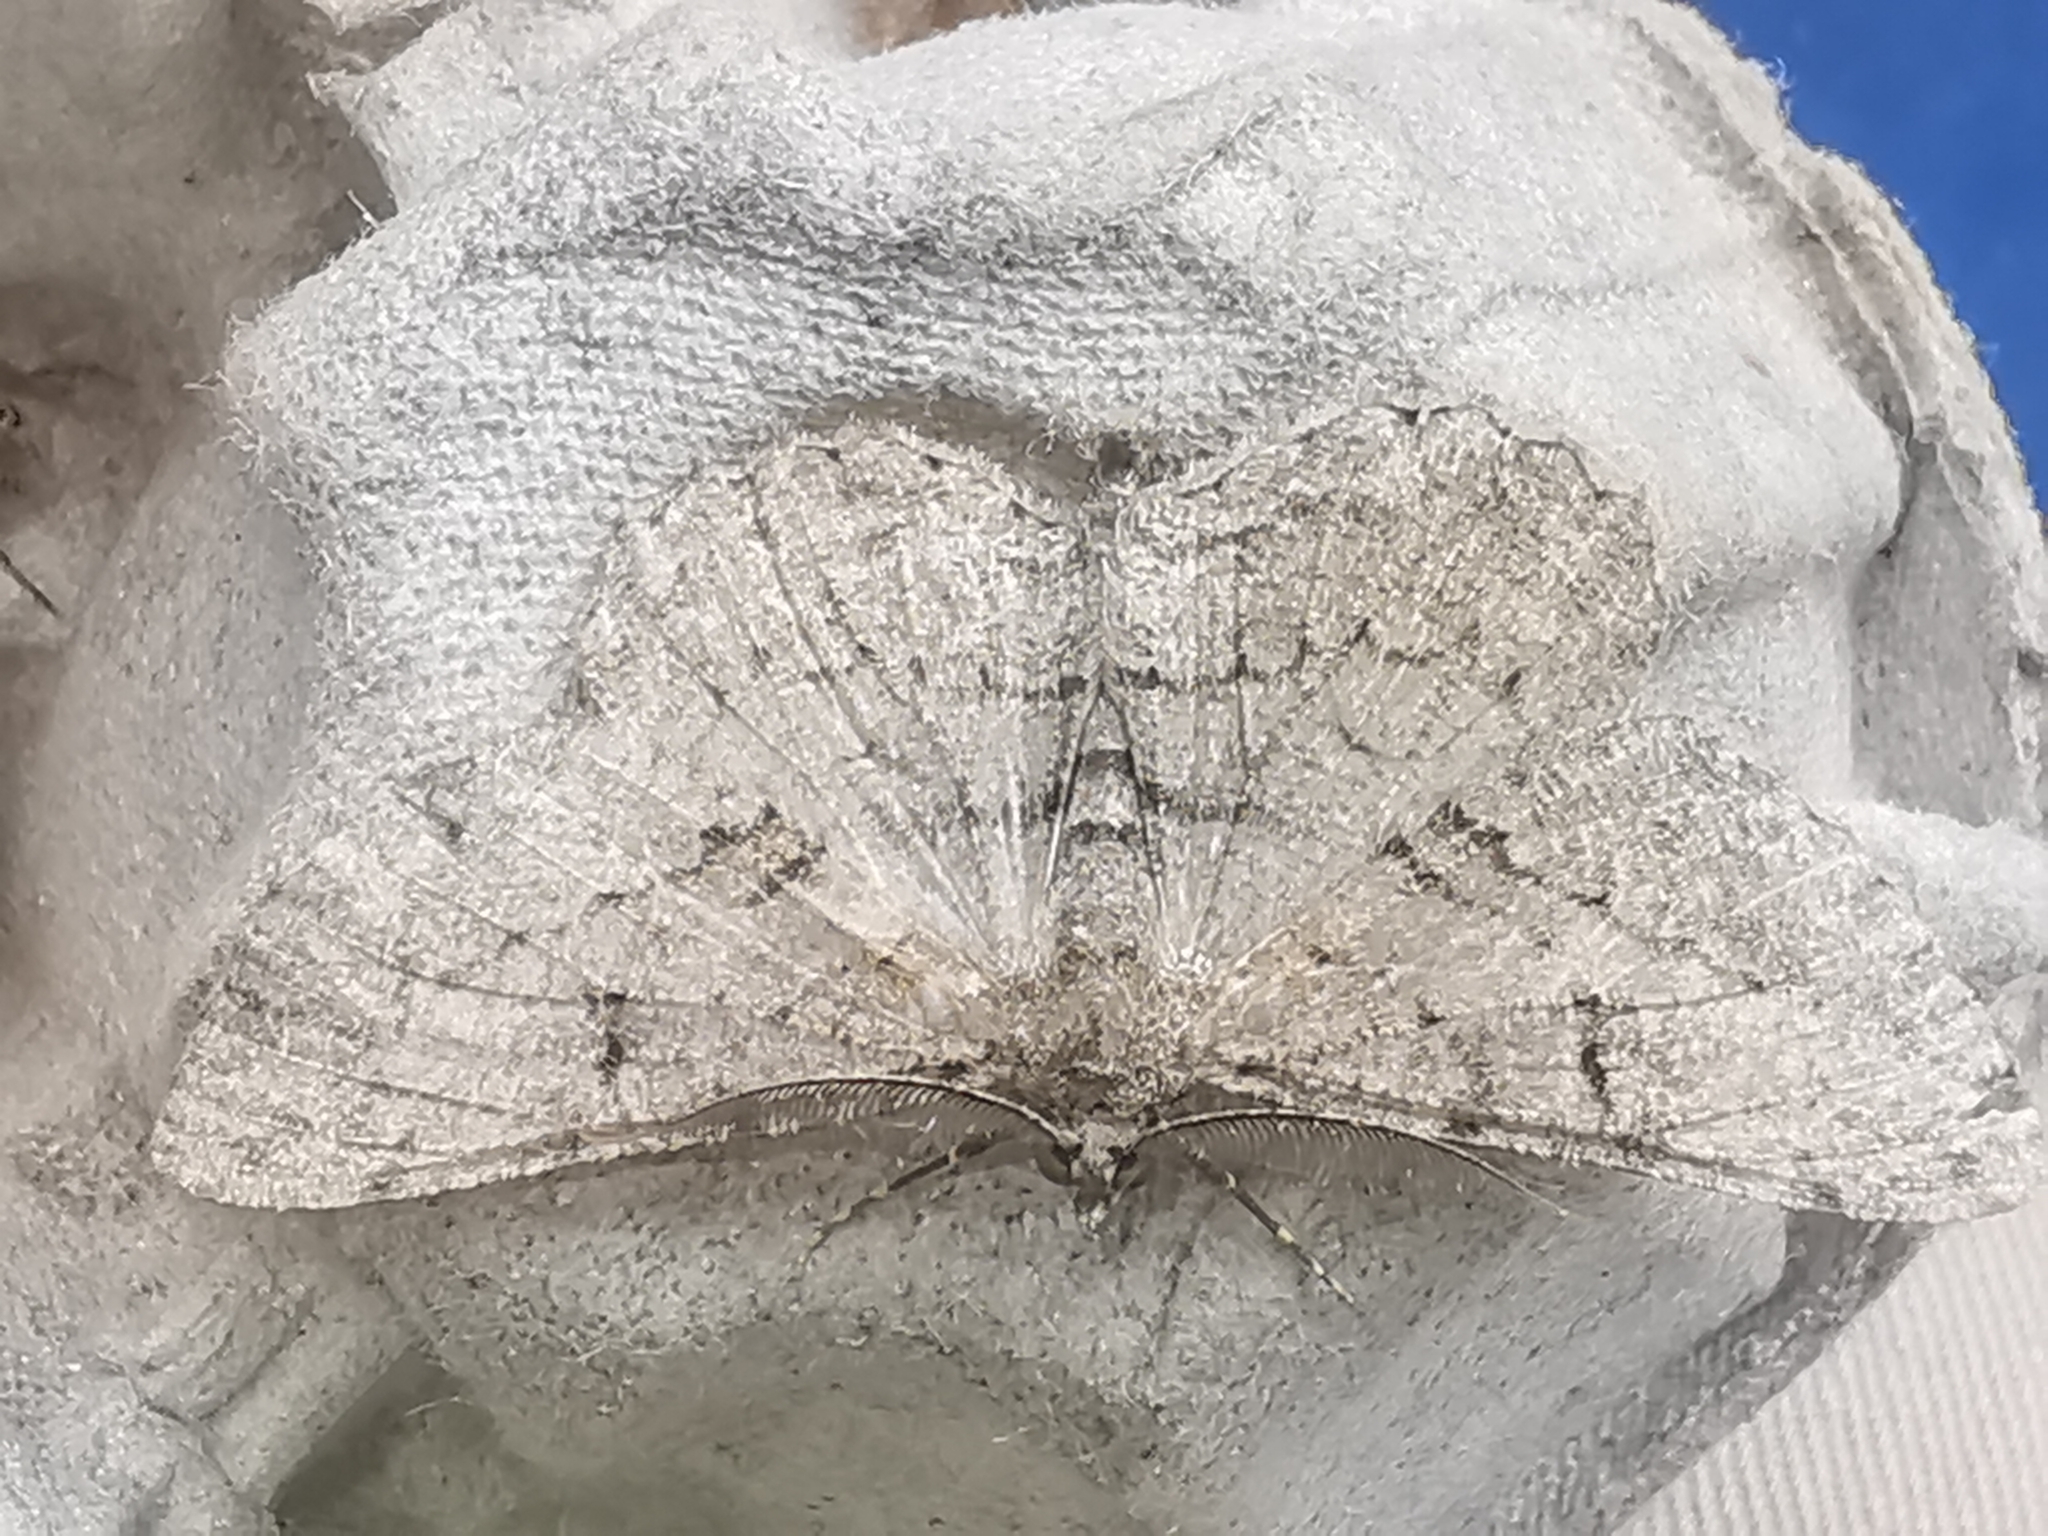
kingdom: Animalia
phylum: Arthropoda
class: Insecta
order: Lepidoptera
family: Geometridae
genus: Peribatodes
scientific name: Peribatodes rhomboidaria
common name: Willow beauty
